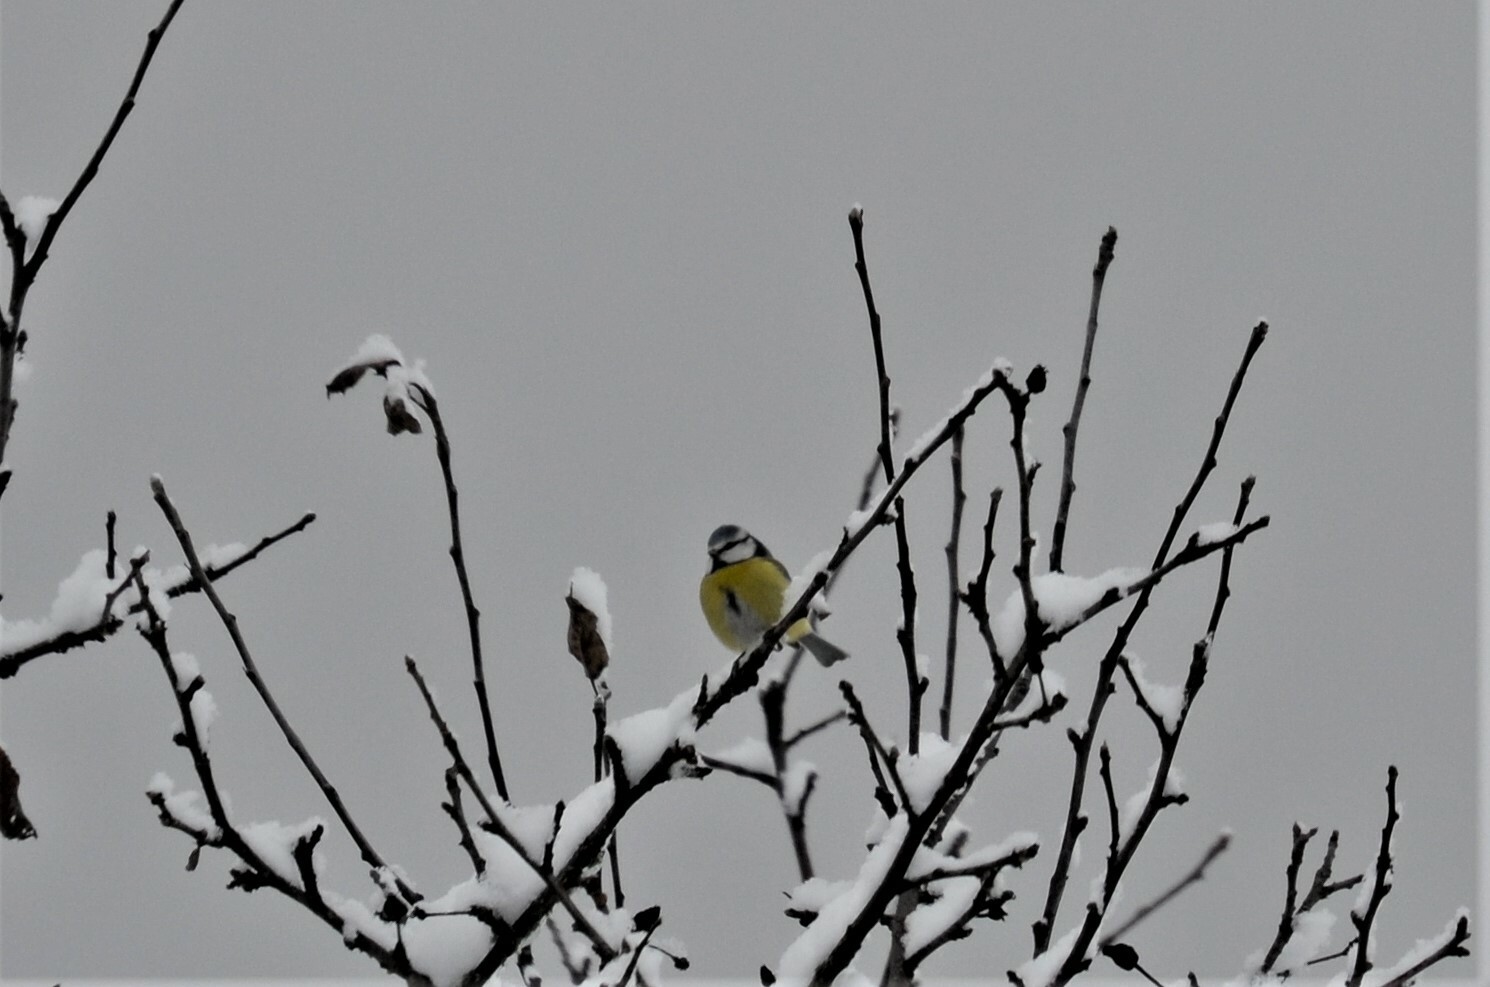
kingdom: Animalia
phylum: Chordata
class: Aves
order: Passeriformes
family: Paridae
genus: Cyanistes
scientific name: Cyanistes caeruleus
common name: Eurasian blue tit
